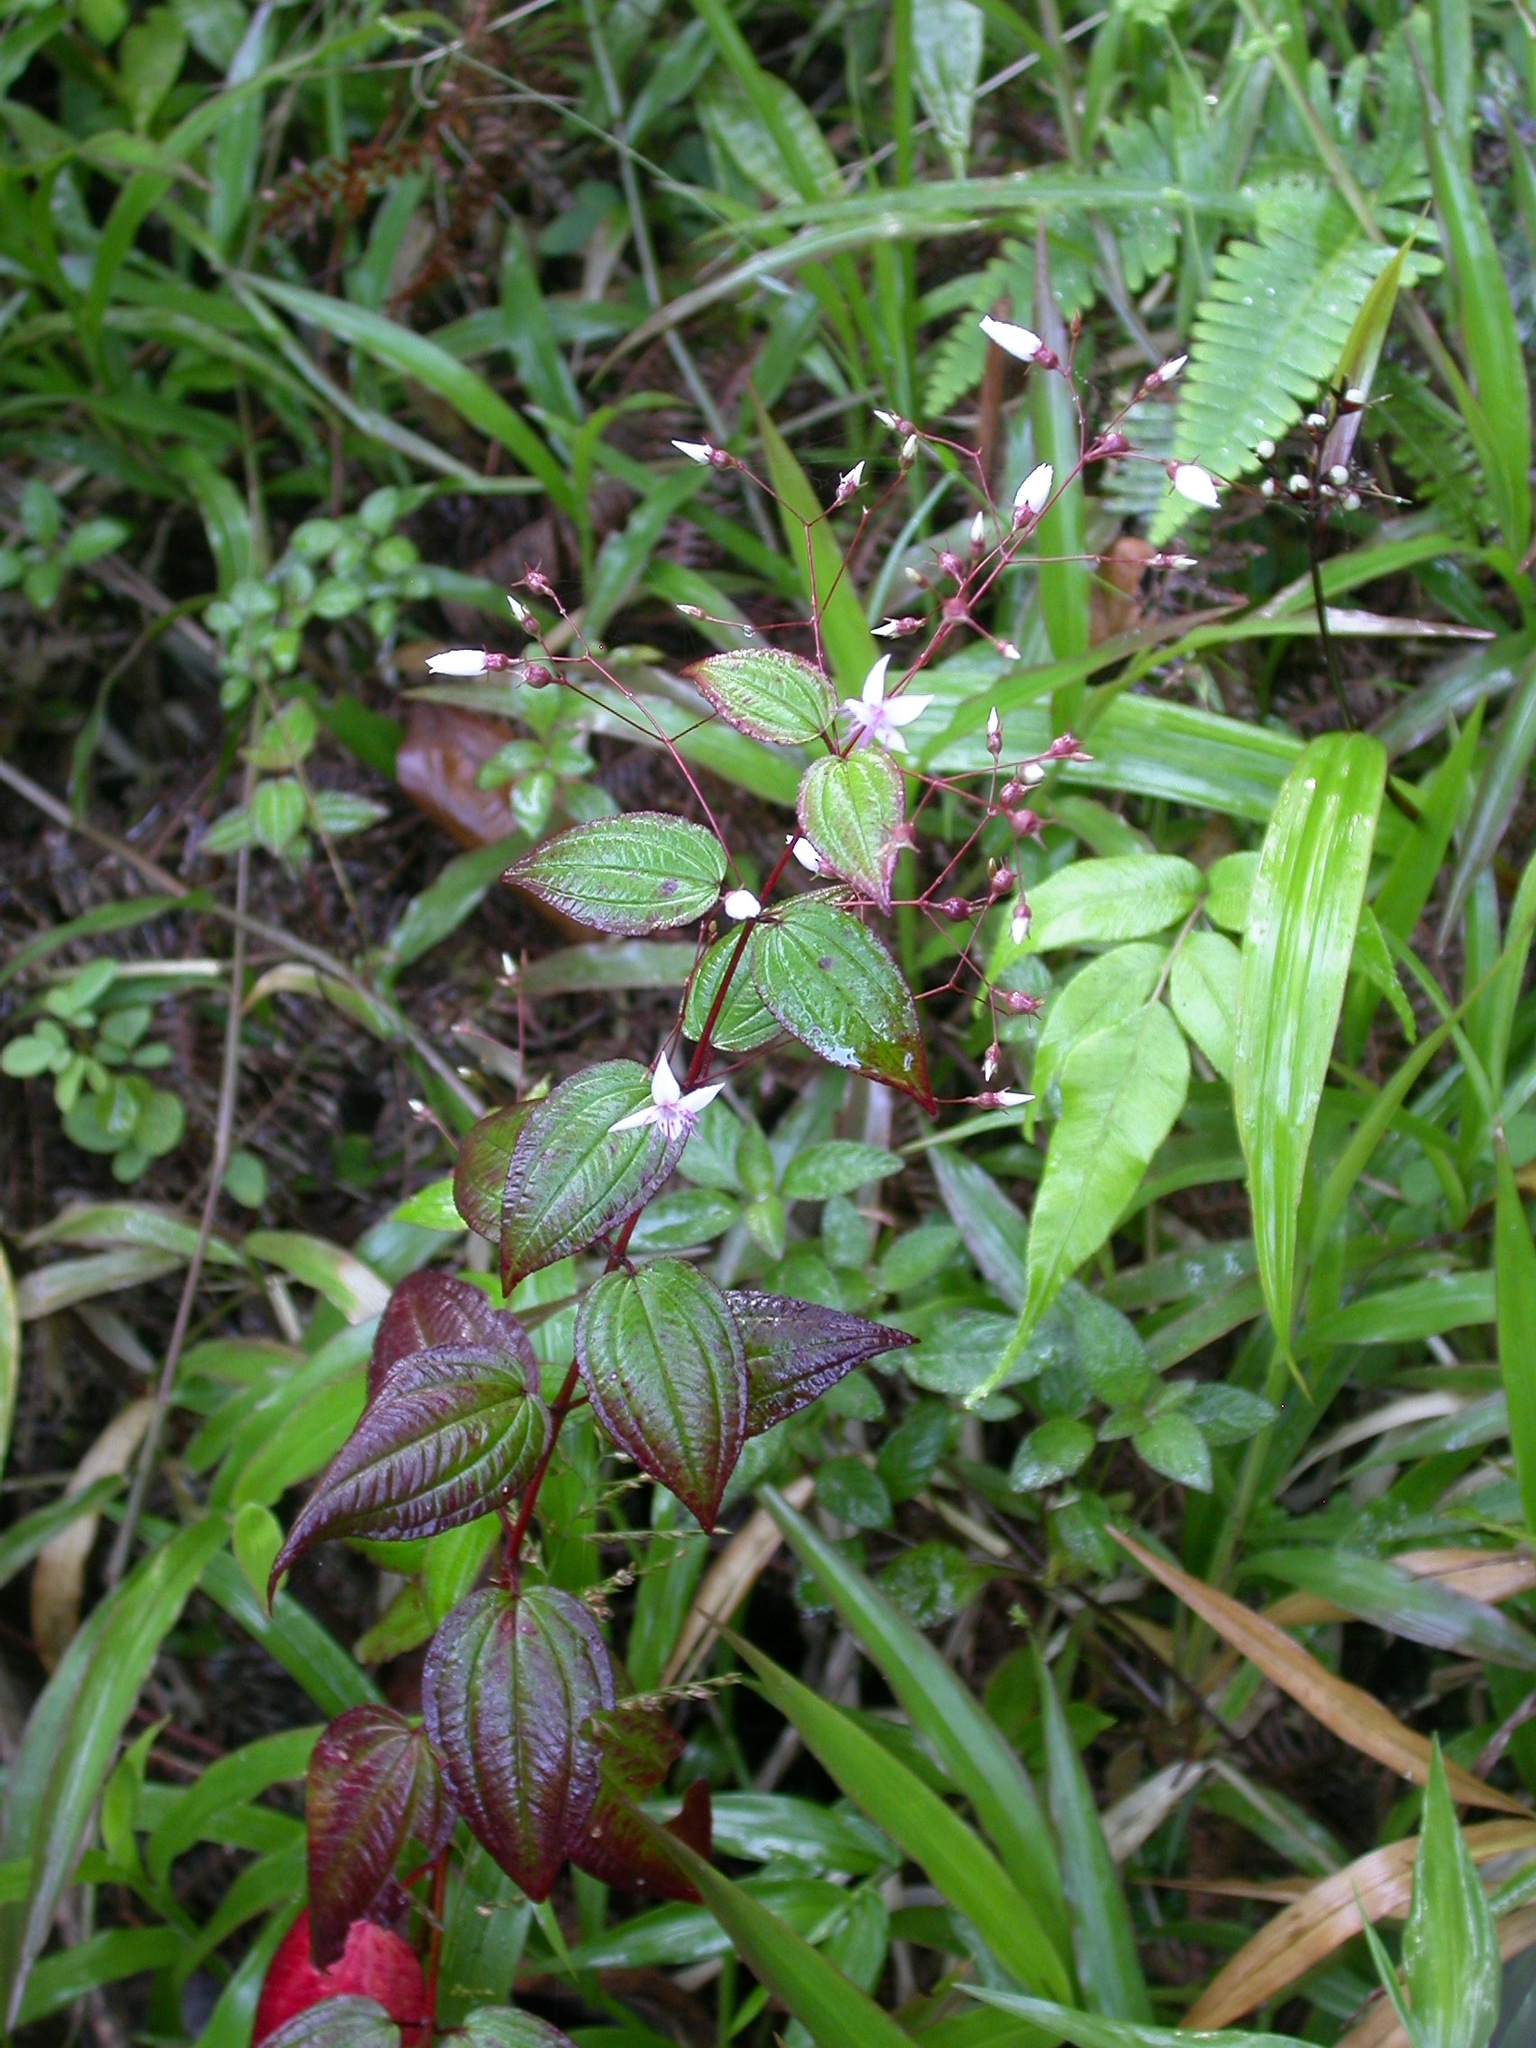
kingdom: Plantae
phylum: Tracheophyta
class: Magnoliopsida
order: Myrtales
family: Melastomataceae
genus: Nepsera
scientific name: Nepsera aquatica
